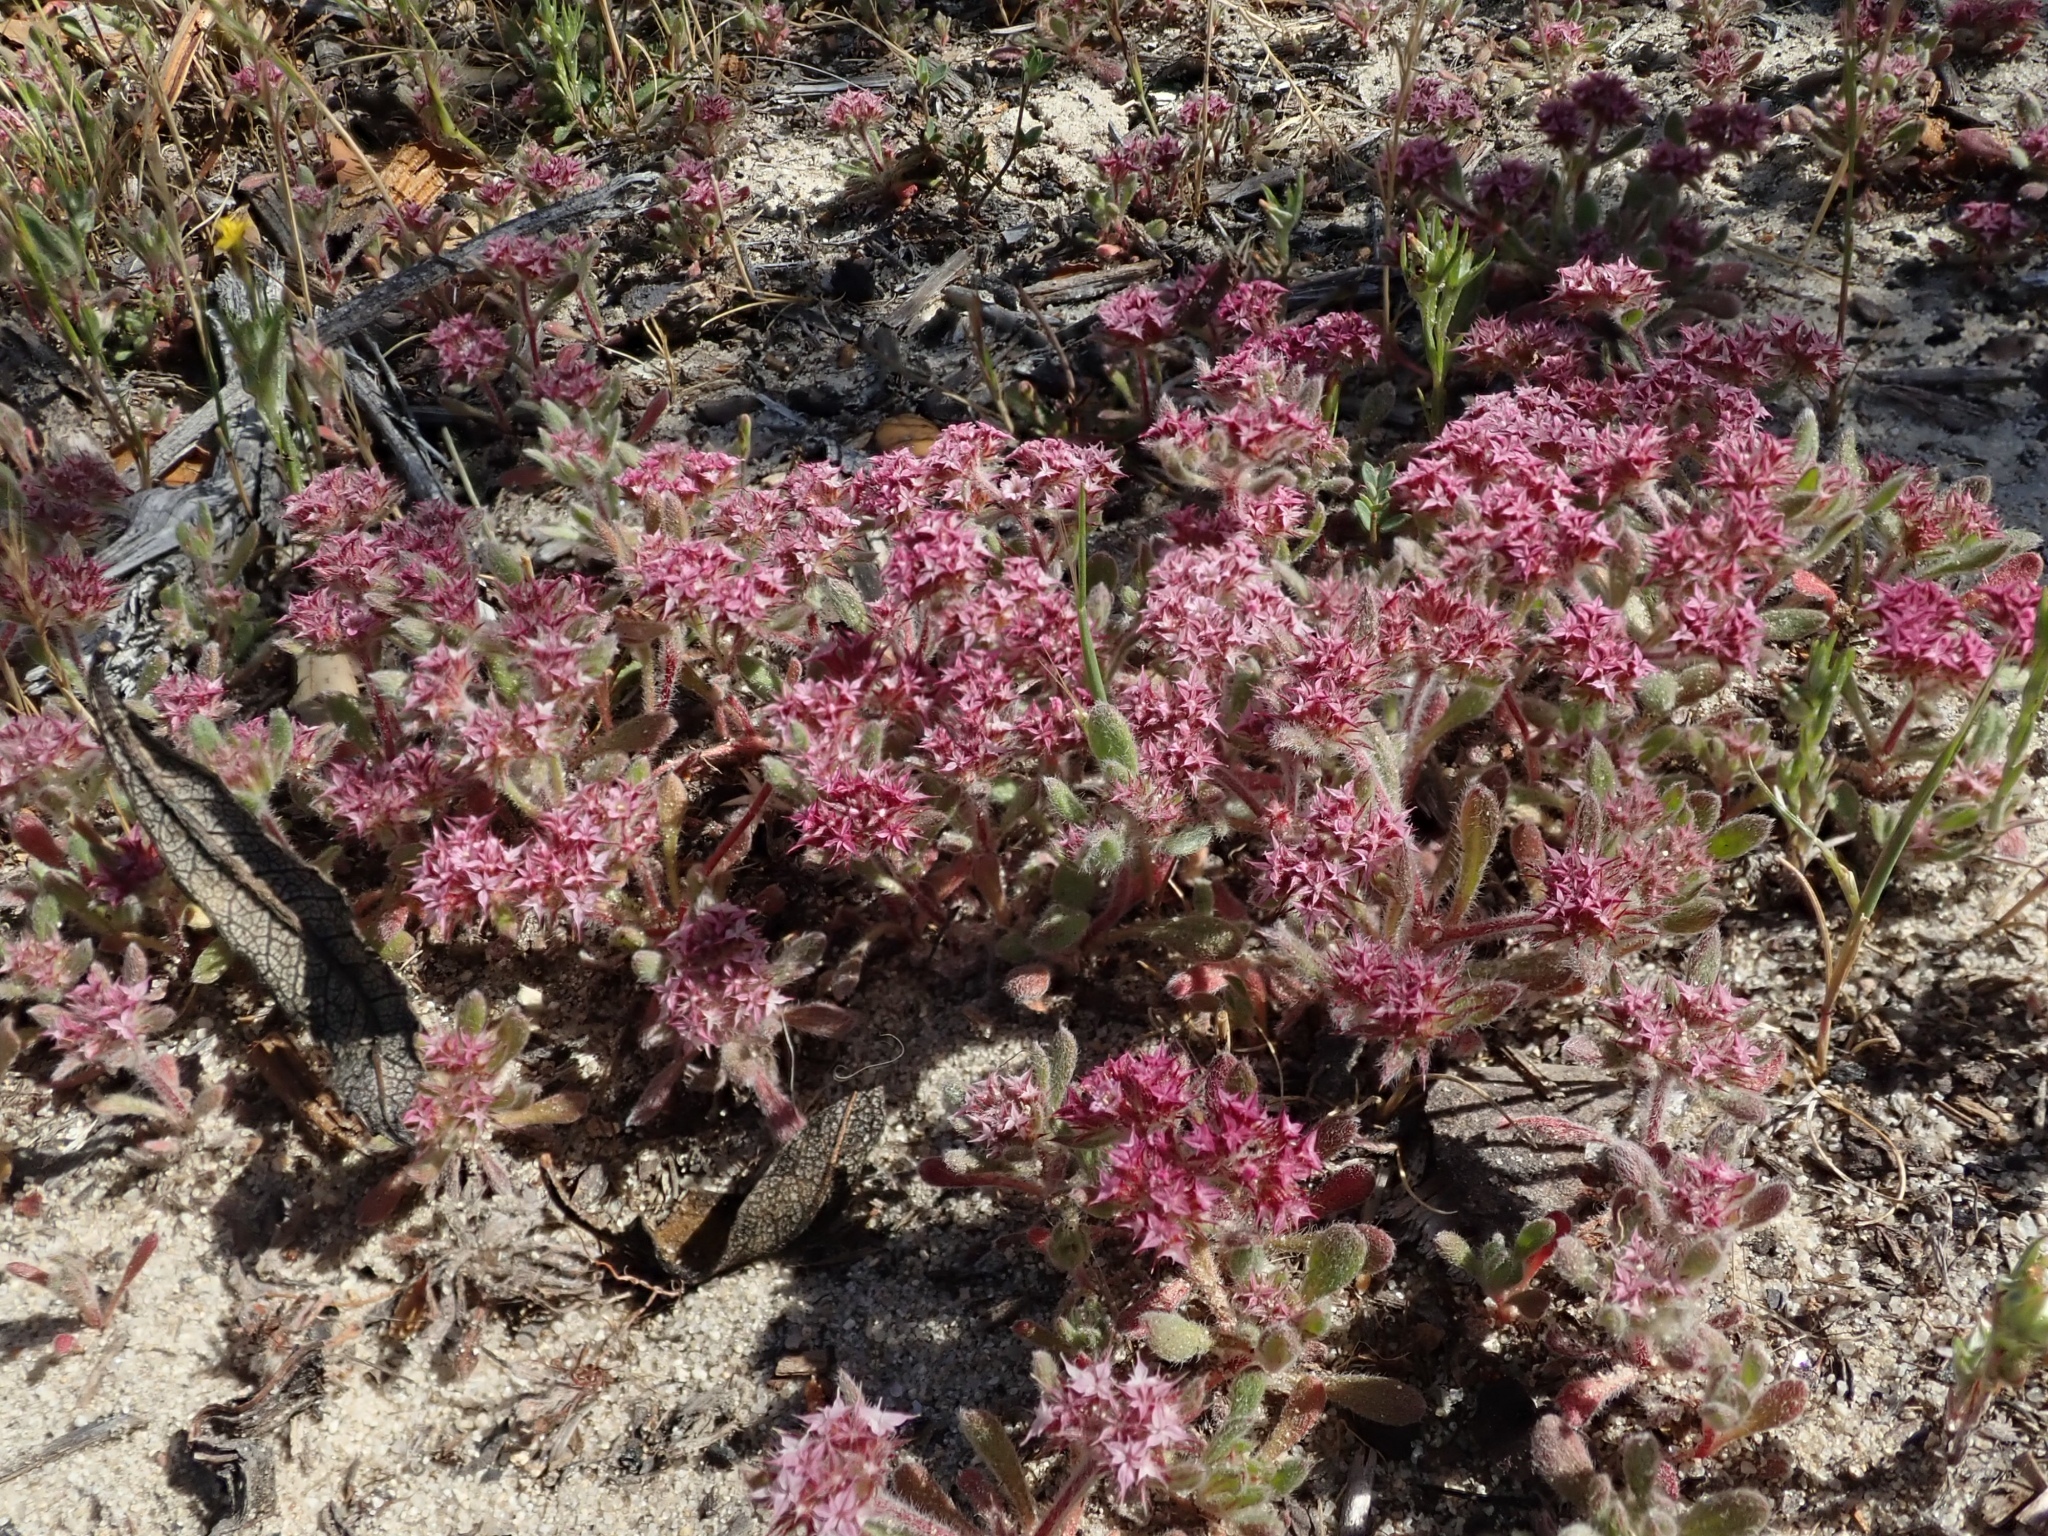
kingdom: Plantae
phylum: Tracheophyta
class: Magnoliopsida
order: Caryophyllales
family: Polygonaceae
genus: Chorizanthe
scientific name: Chorizanthe pungens
